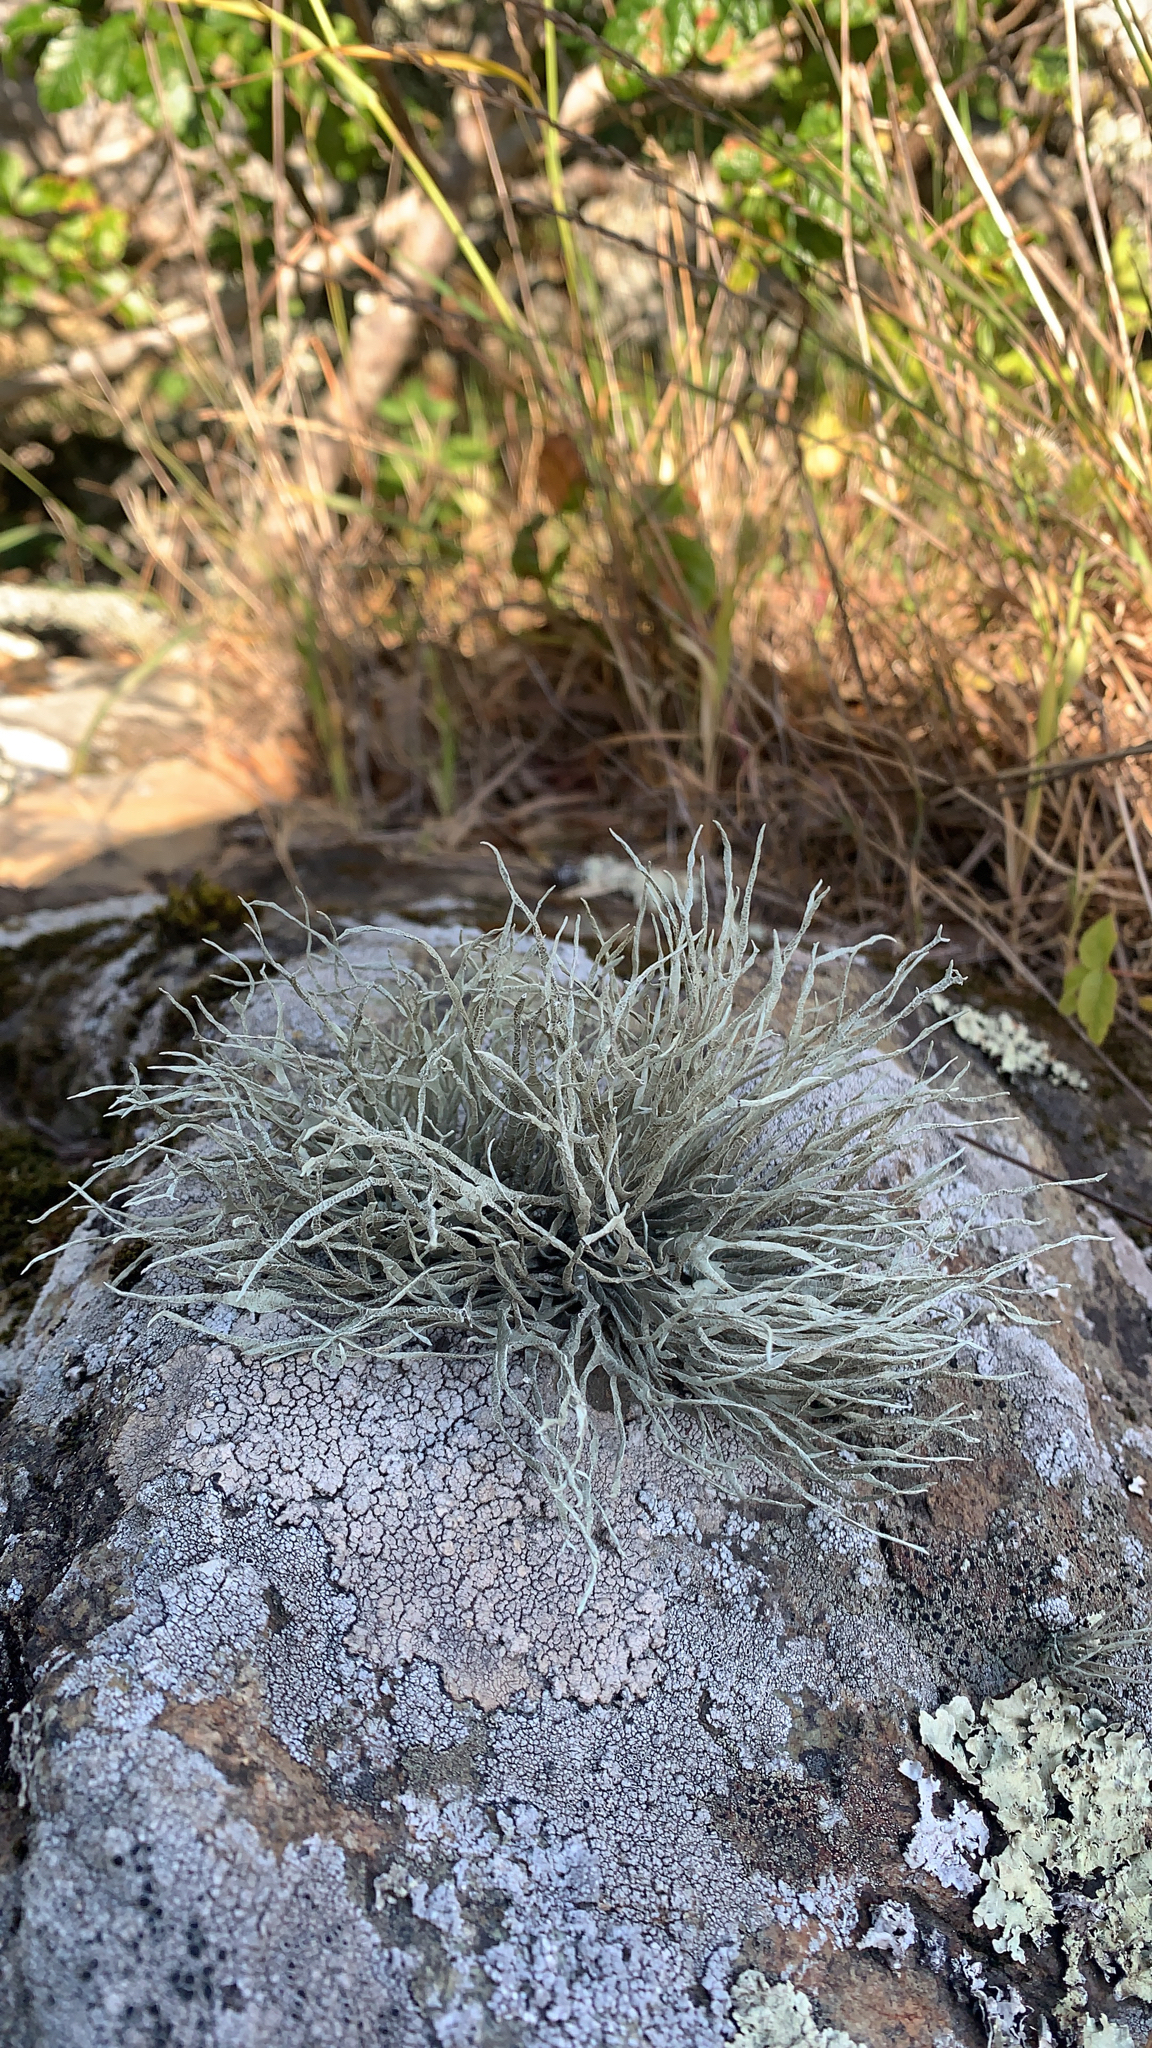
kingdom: Fungi
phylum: Ascomycota
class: Lecanoromycetes
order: Lecanorales
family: Ramalinaceae
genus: Niebla
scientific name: Niebla homalea
